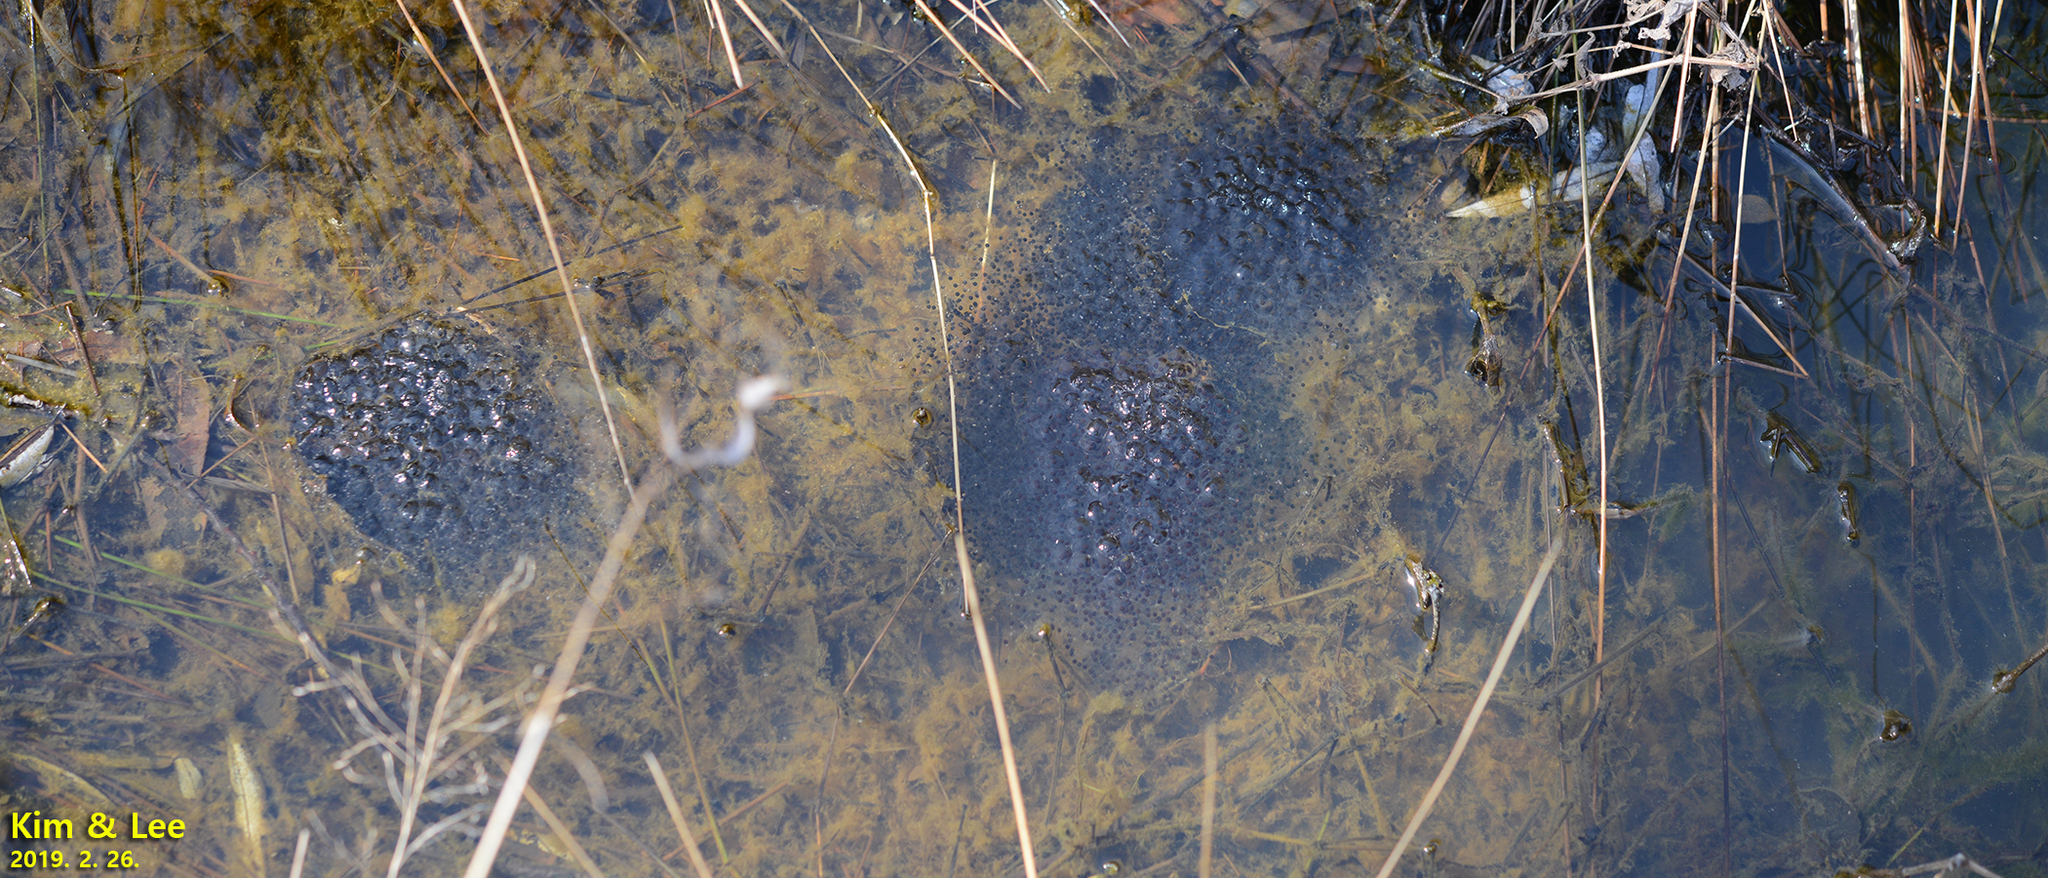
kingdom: Animalia
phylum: Chordata
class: Amphibia
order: Anura
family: Ranidae
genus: Rana
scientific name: Rana uenoi
